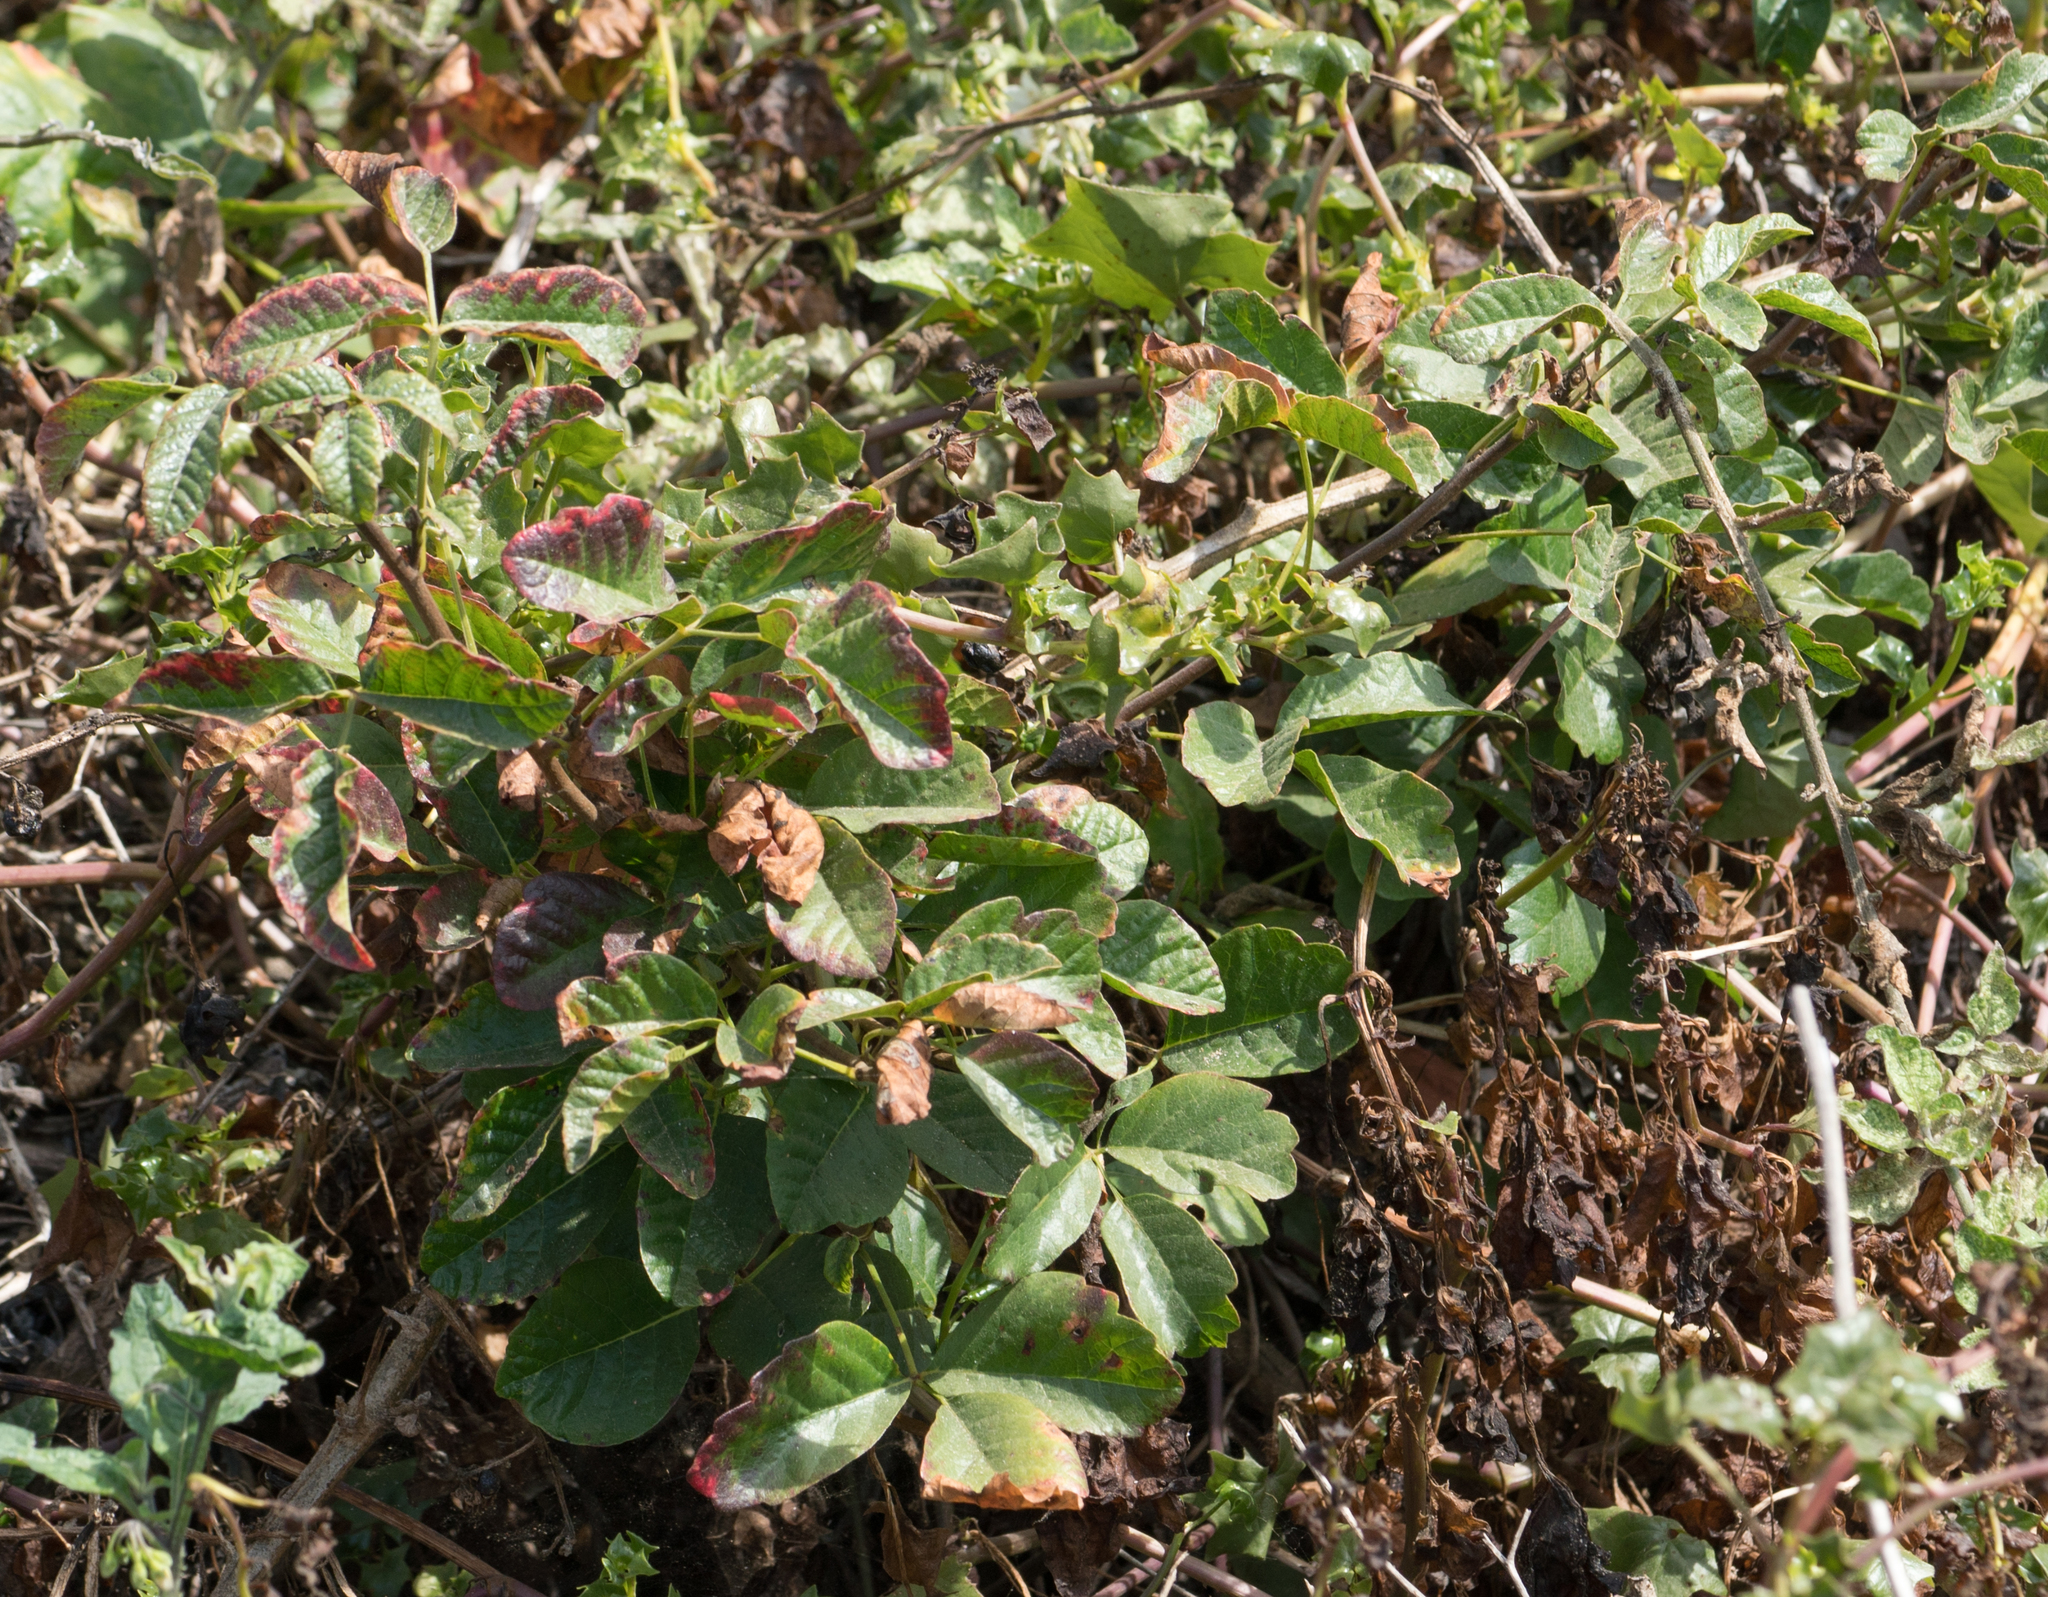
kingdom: Plantae
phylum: Tracheophyta
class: Magnoliopsida
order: Sapindales
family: Anacardiaceae
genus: Toxicodendron
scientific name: Toxicodendron diversilobum
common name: Pacific poison-oak
